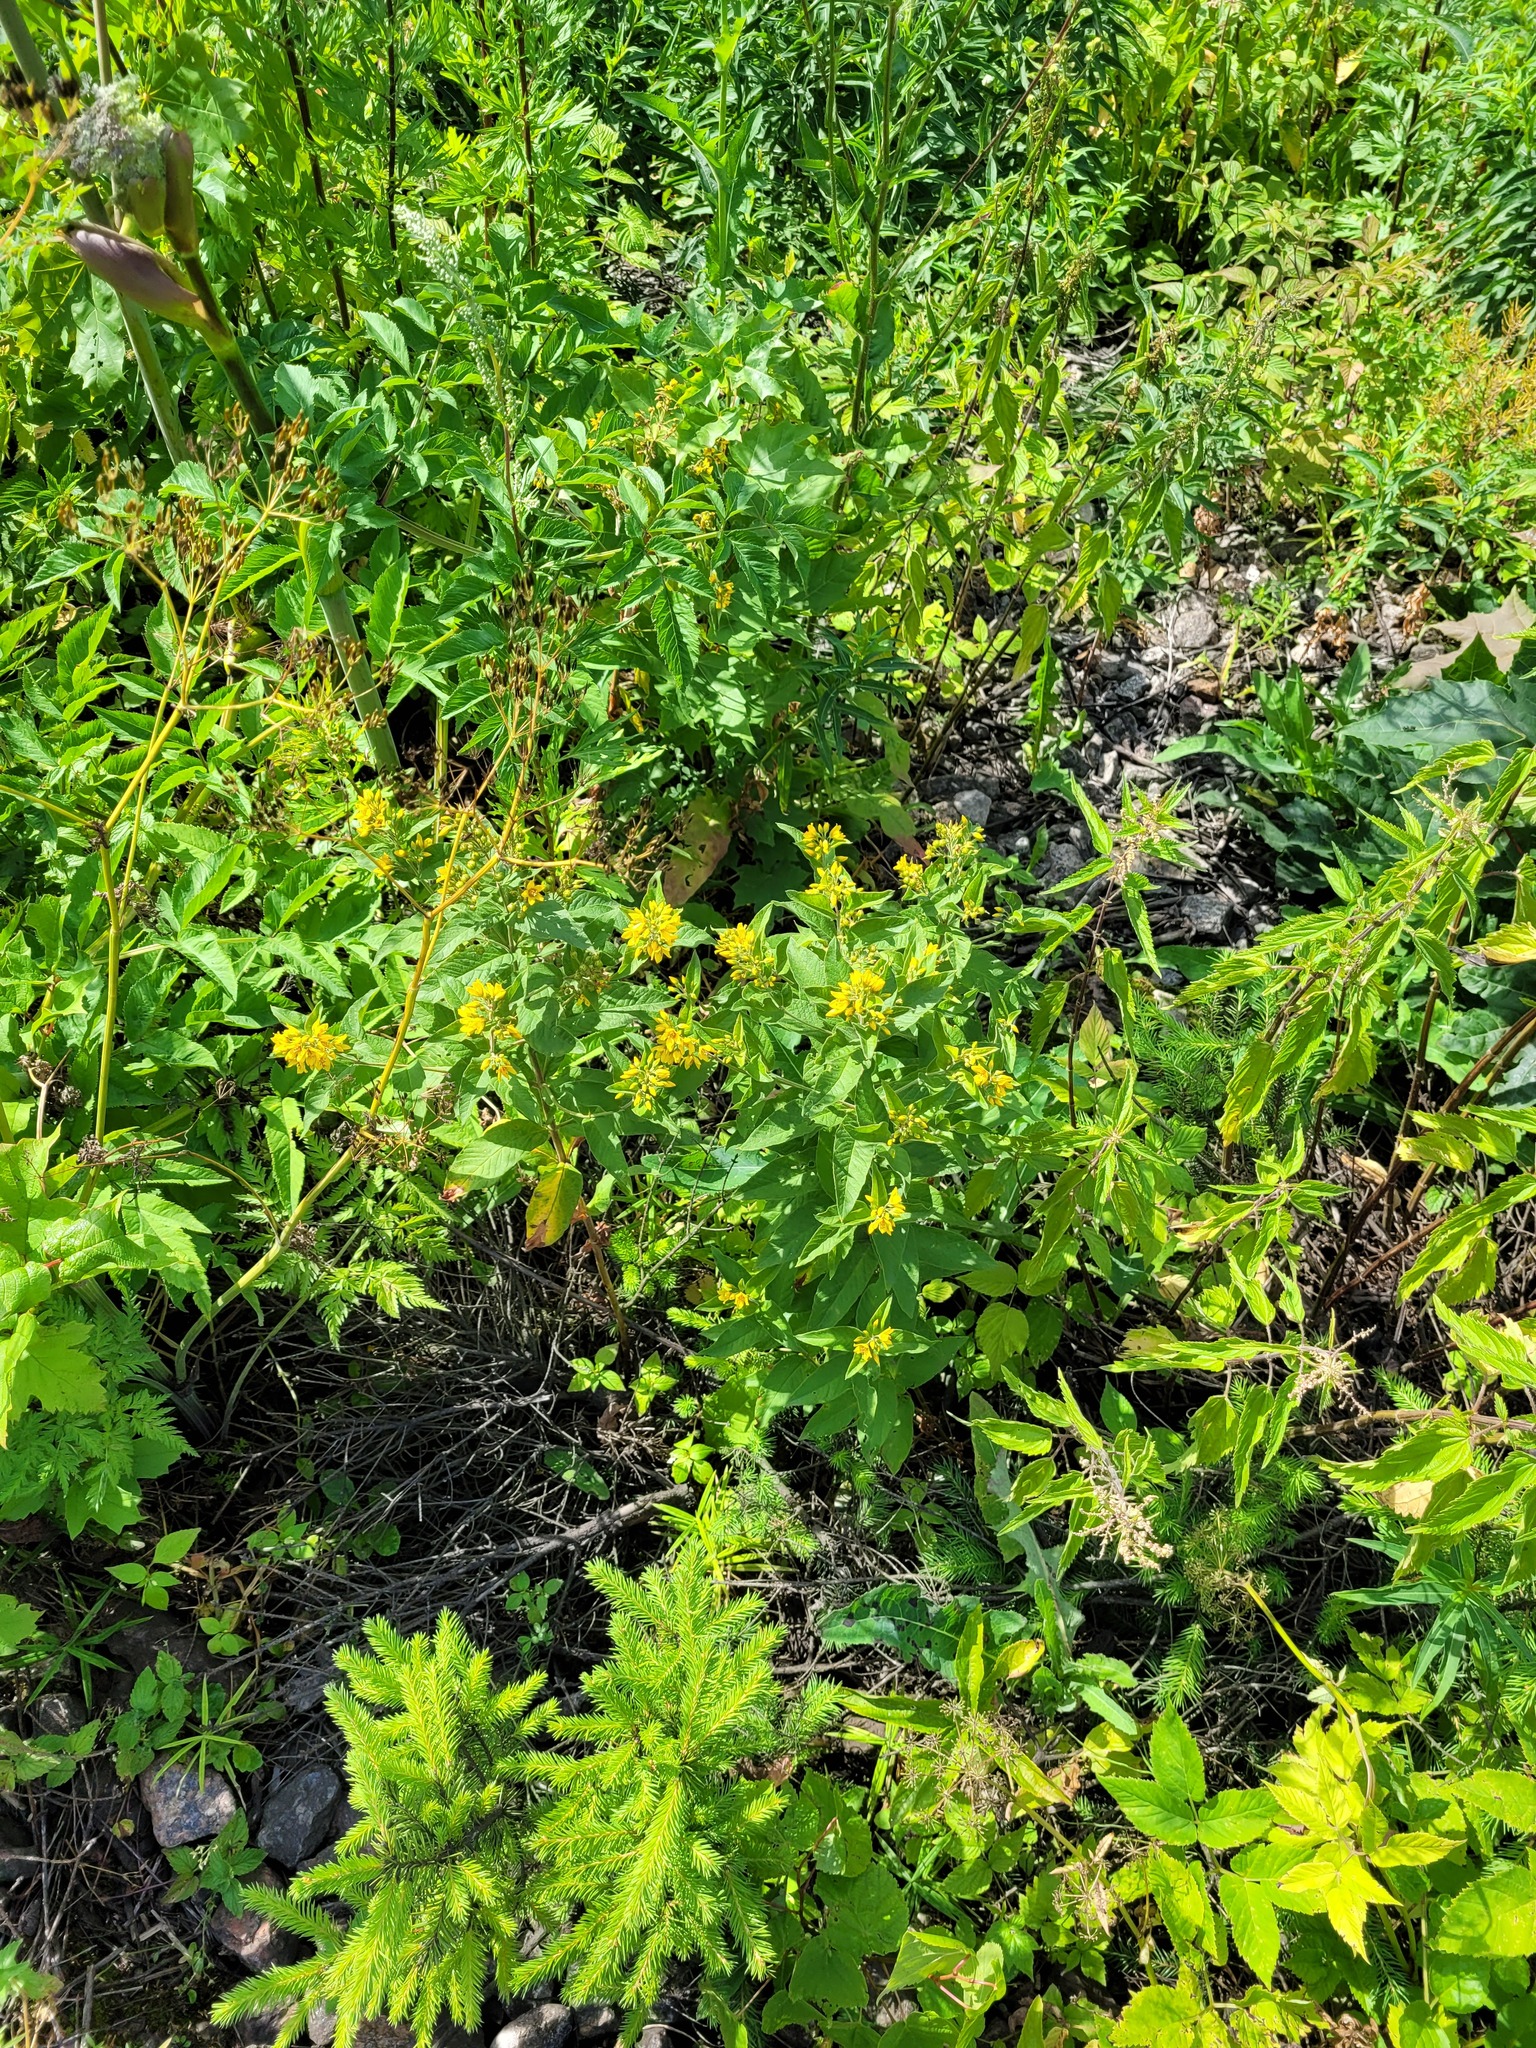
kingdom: Plantae
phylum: Tracheophyta
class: Magnoliopsida
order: Ericales
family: Primulaceae
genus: Lysimachia
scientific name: Lysimachia vulgaris
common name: Yellow loosestrife
